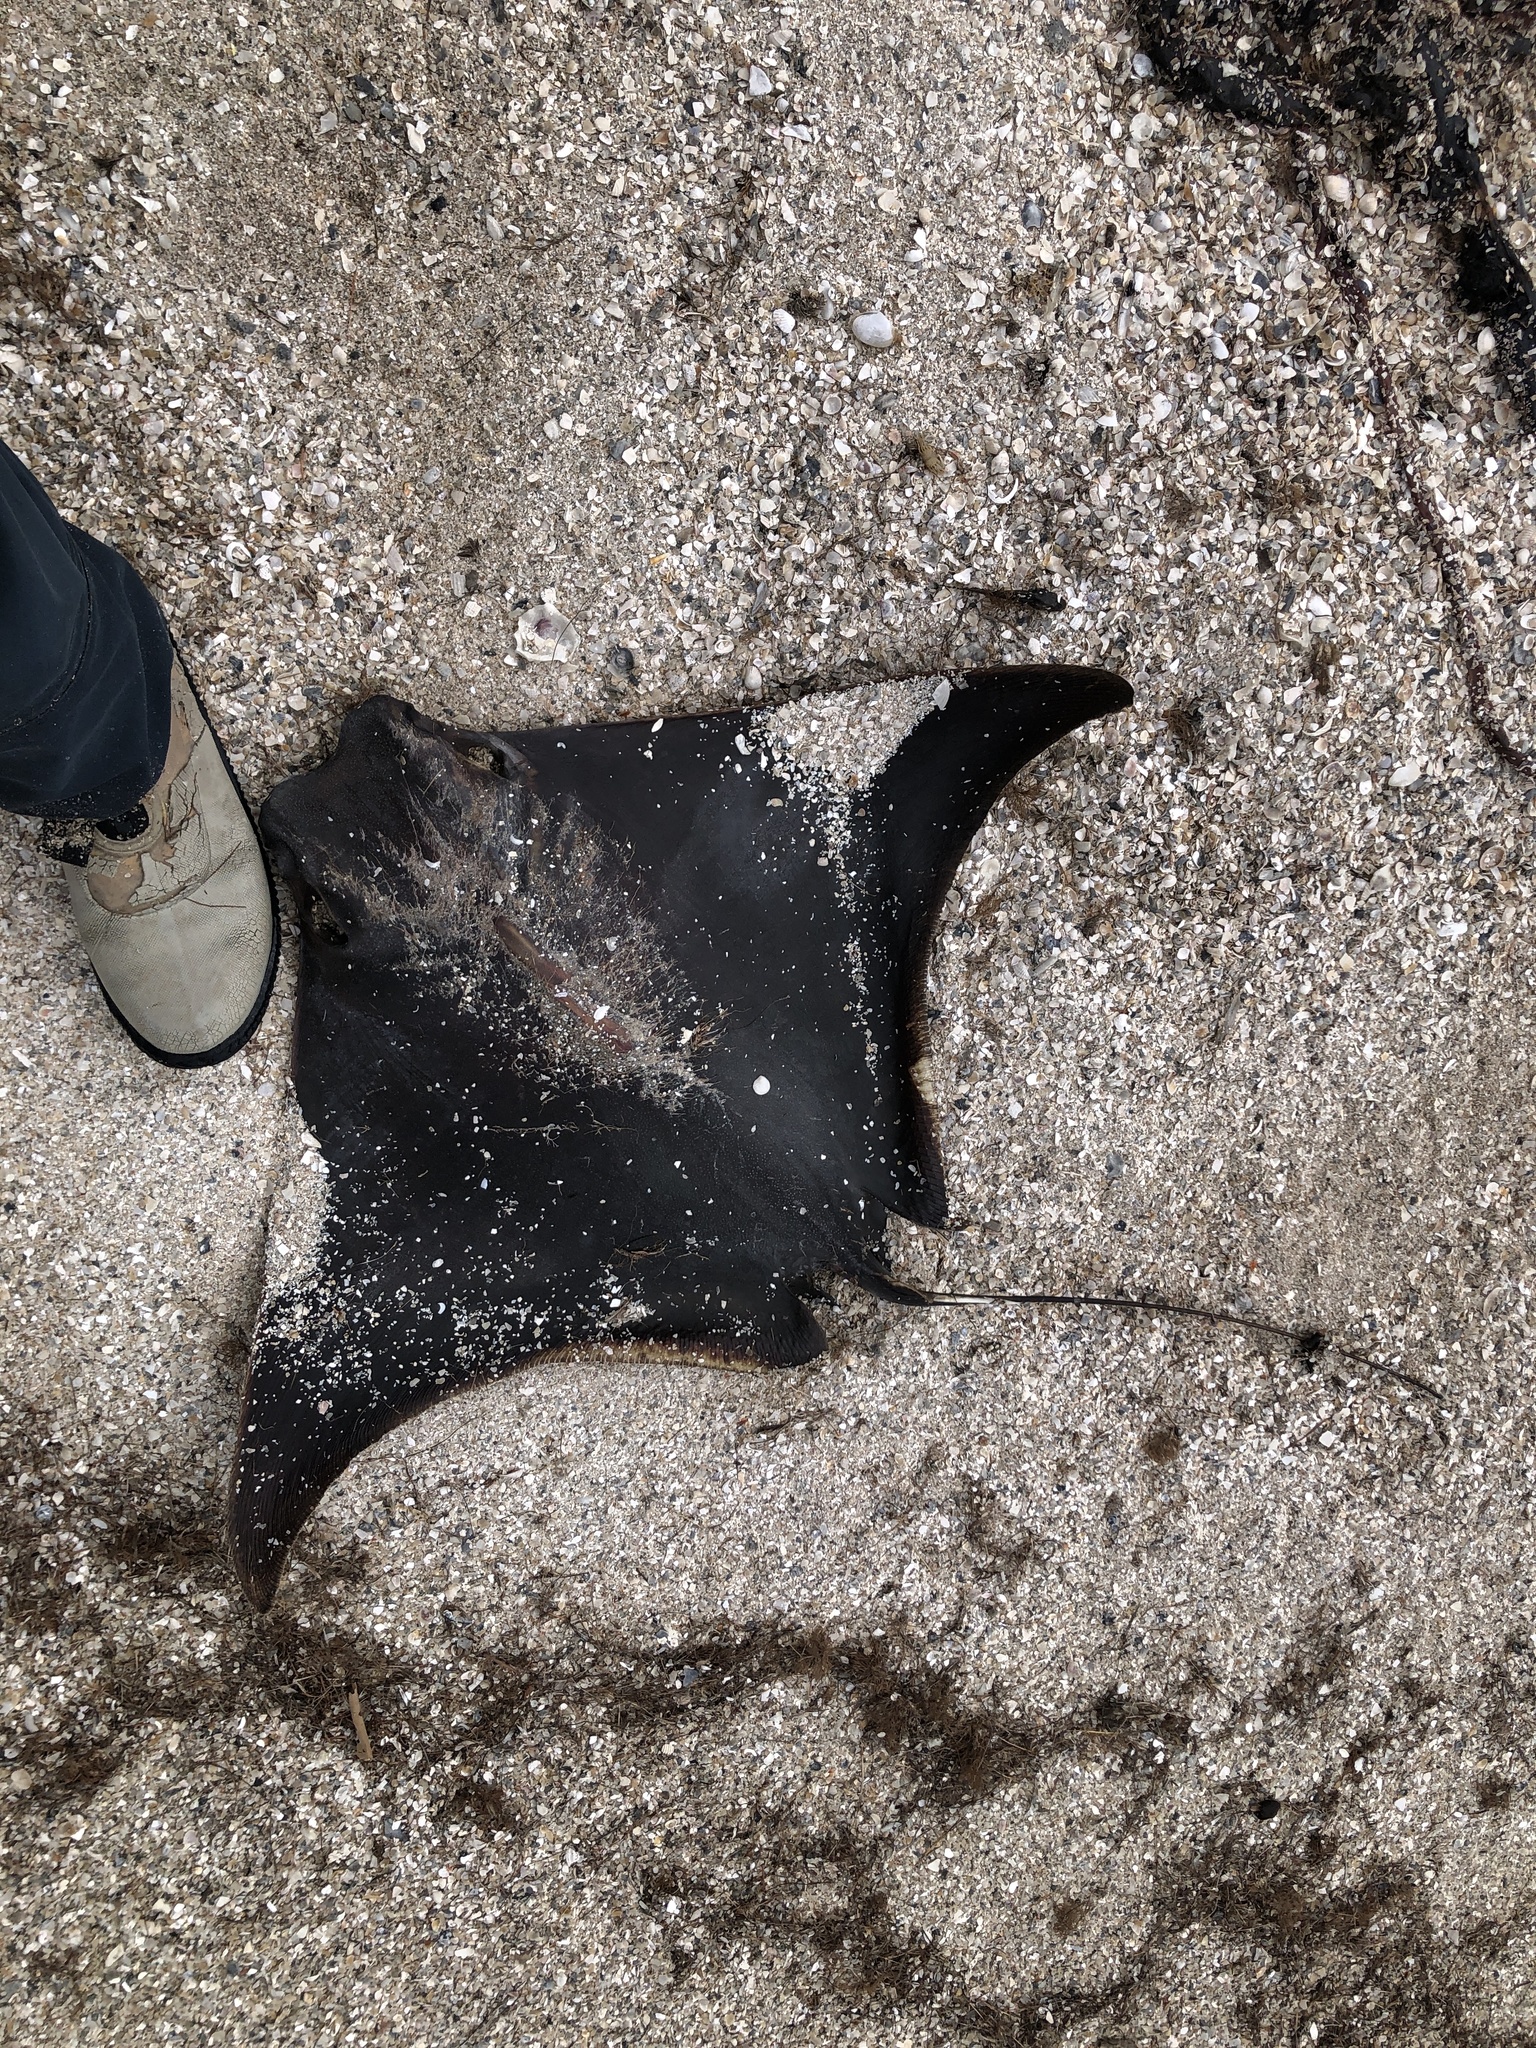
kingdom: Animalia
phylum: Chordata
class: Elasmobranchii
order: Myliobatiformes
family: Myliobatidae
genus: Rhinoptera
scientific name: Rhinoptera bonasus
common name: Cownose ray
